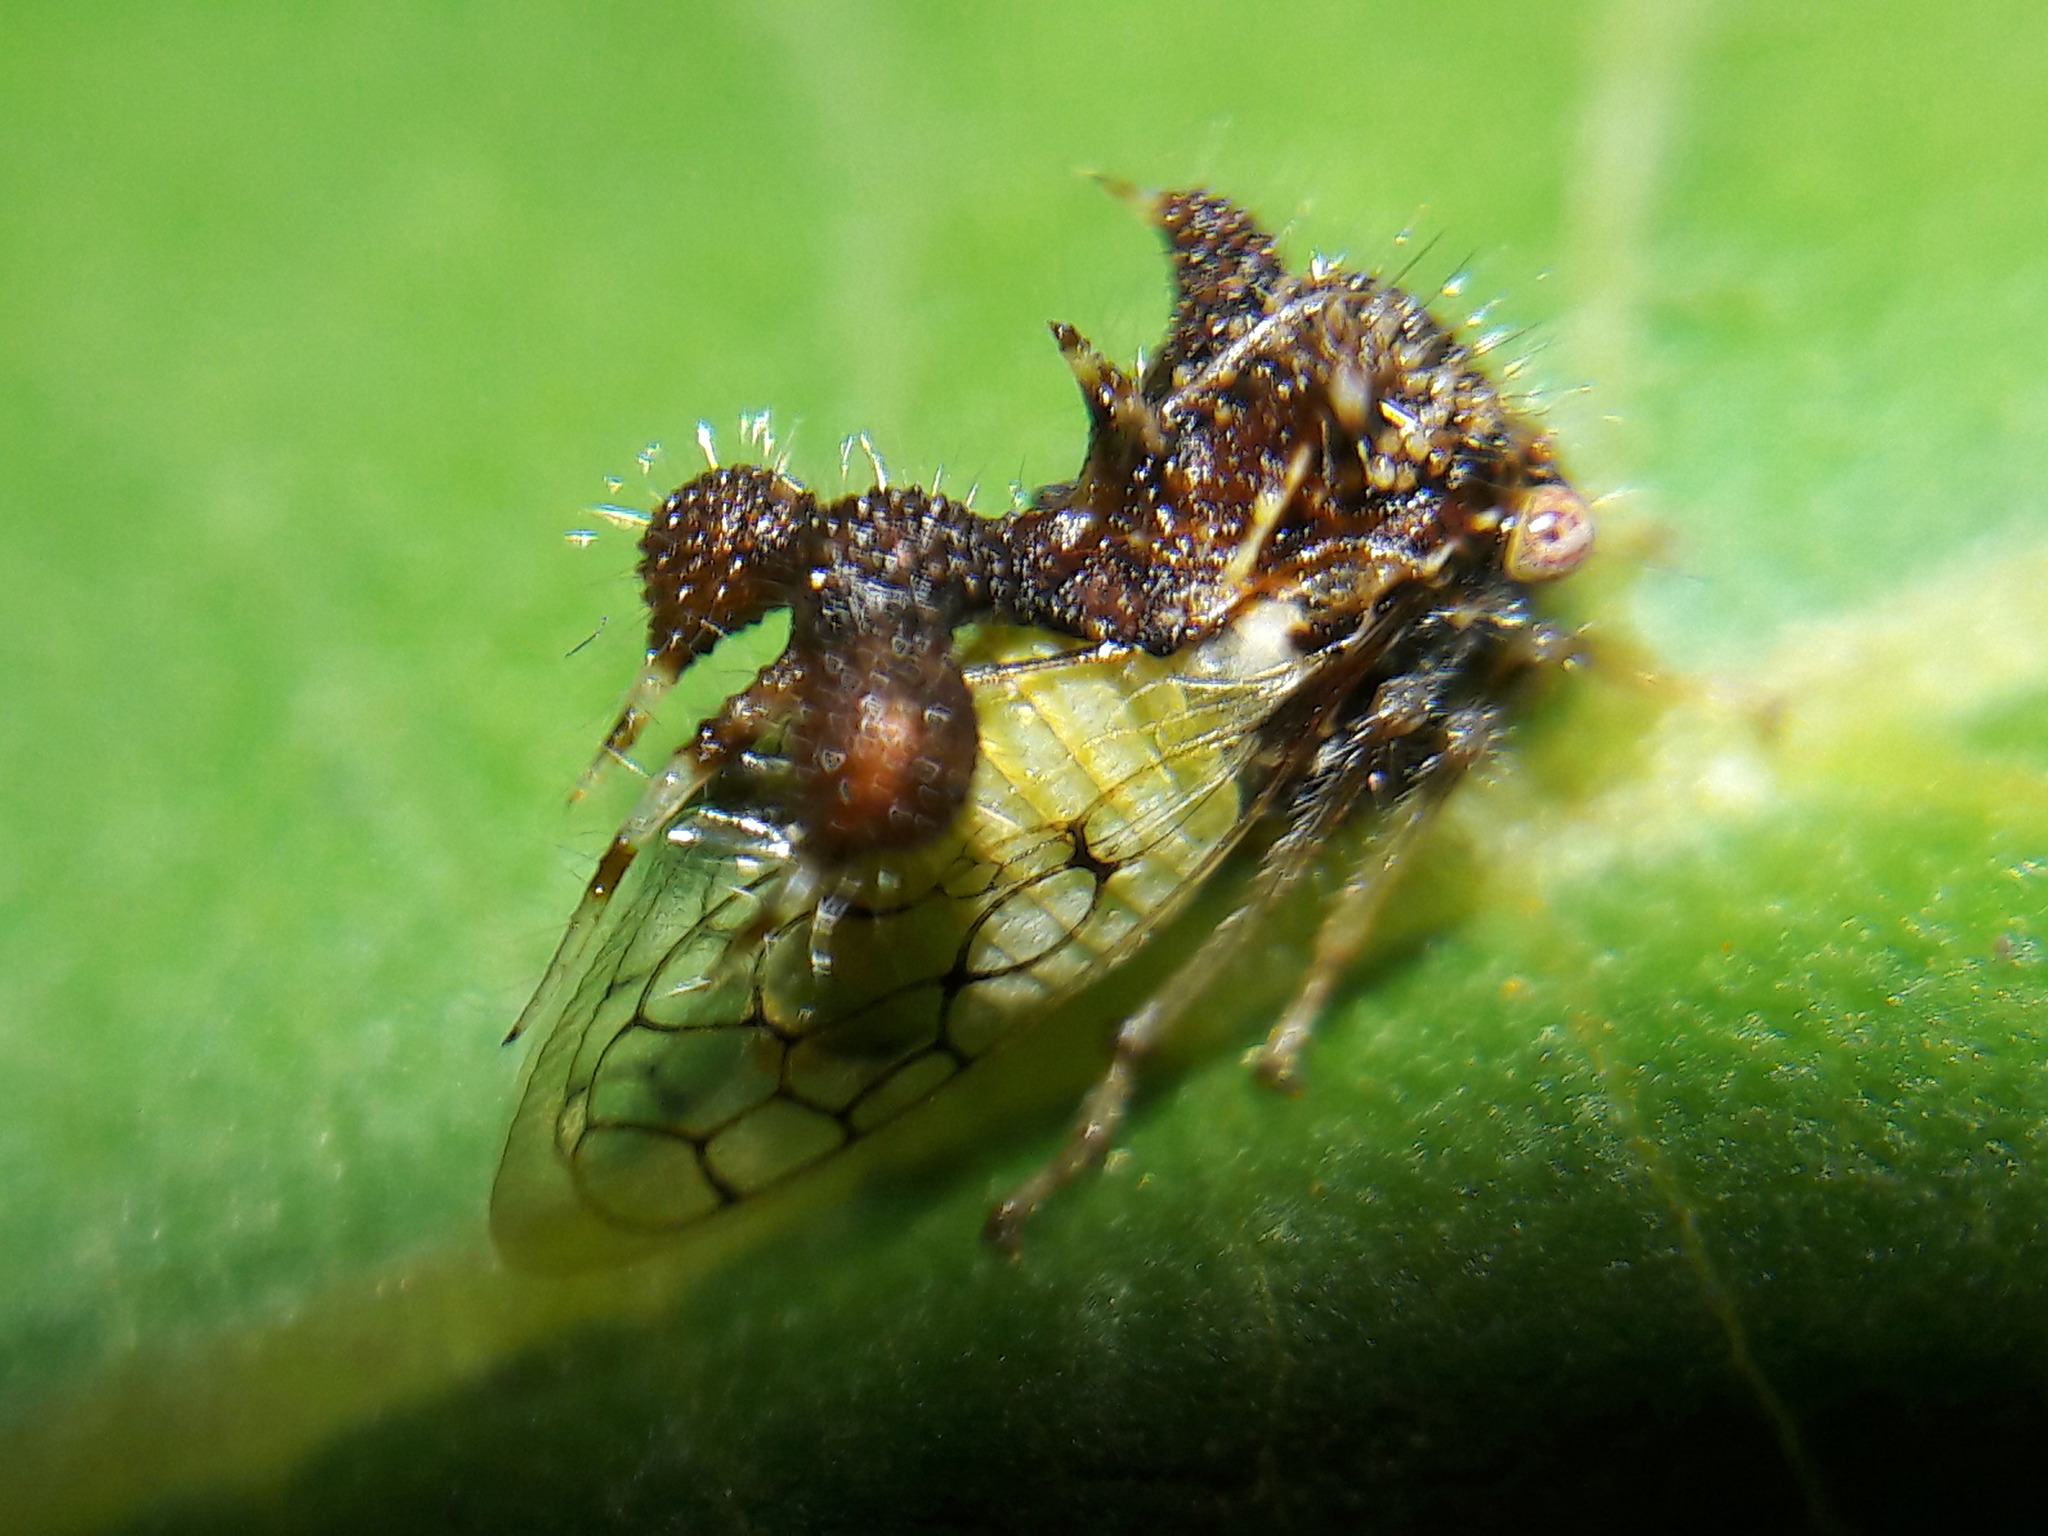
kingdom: Animalia
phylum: Arthropoda
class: Insecta
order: Hemiptera
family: Membracidae
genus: Cyphonia
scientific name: Cyphonia claviger
